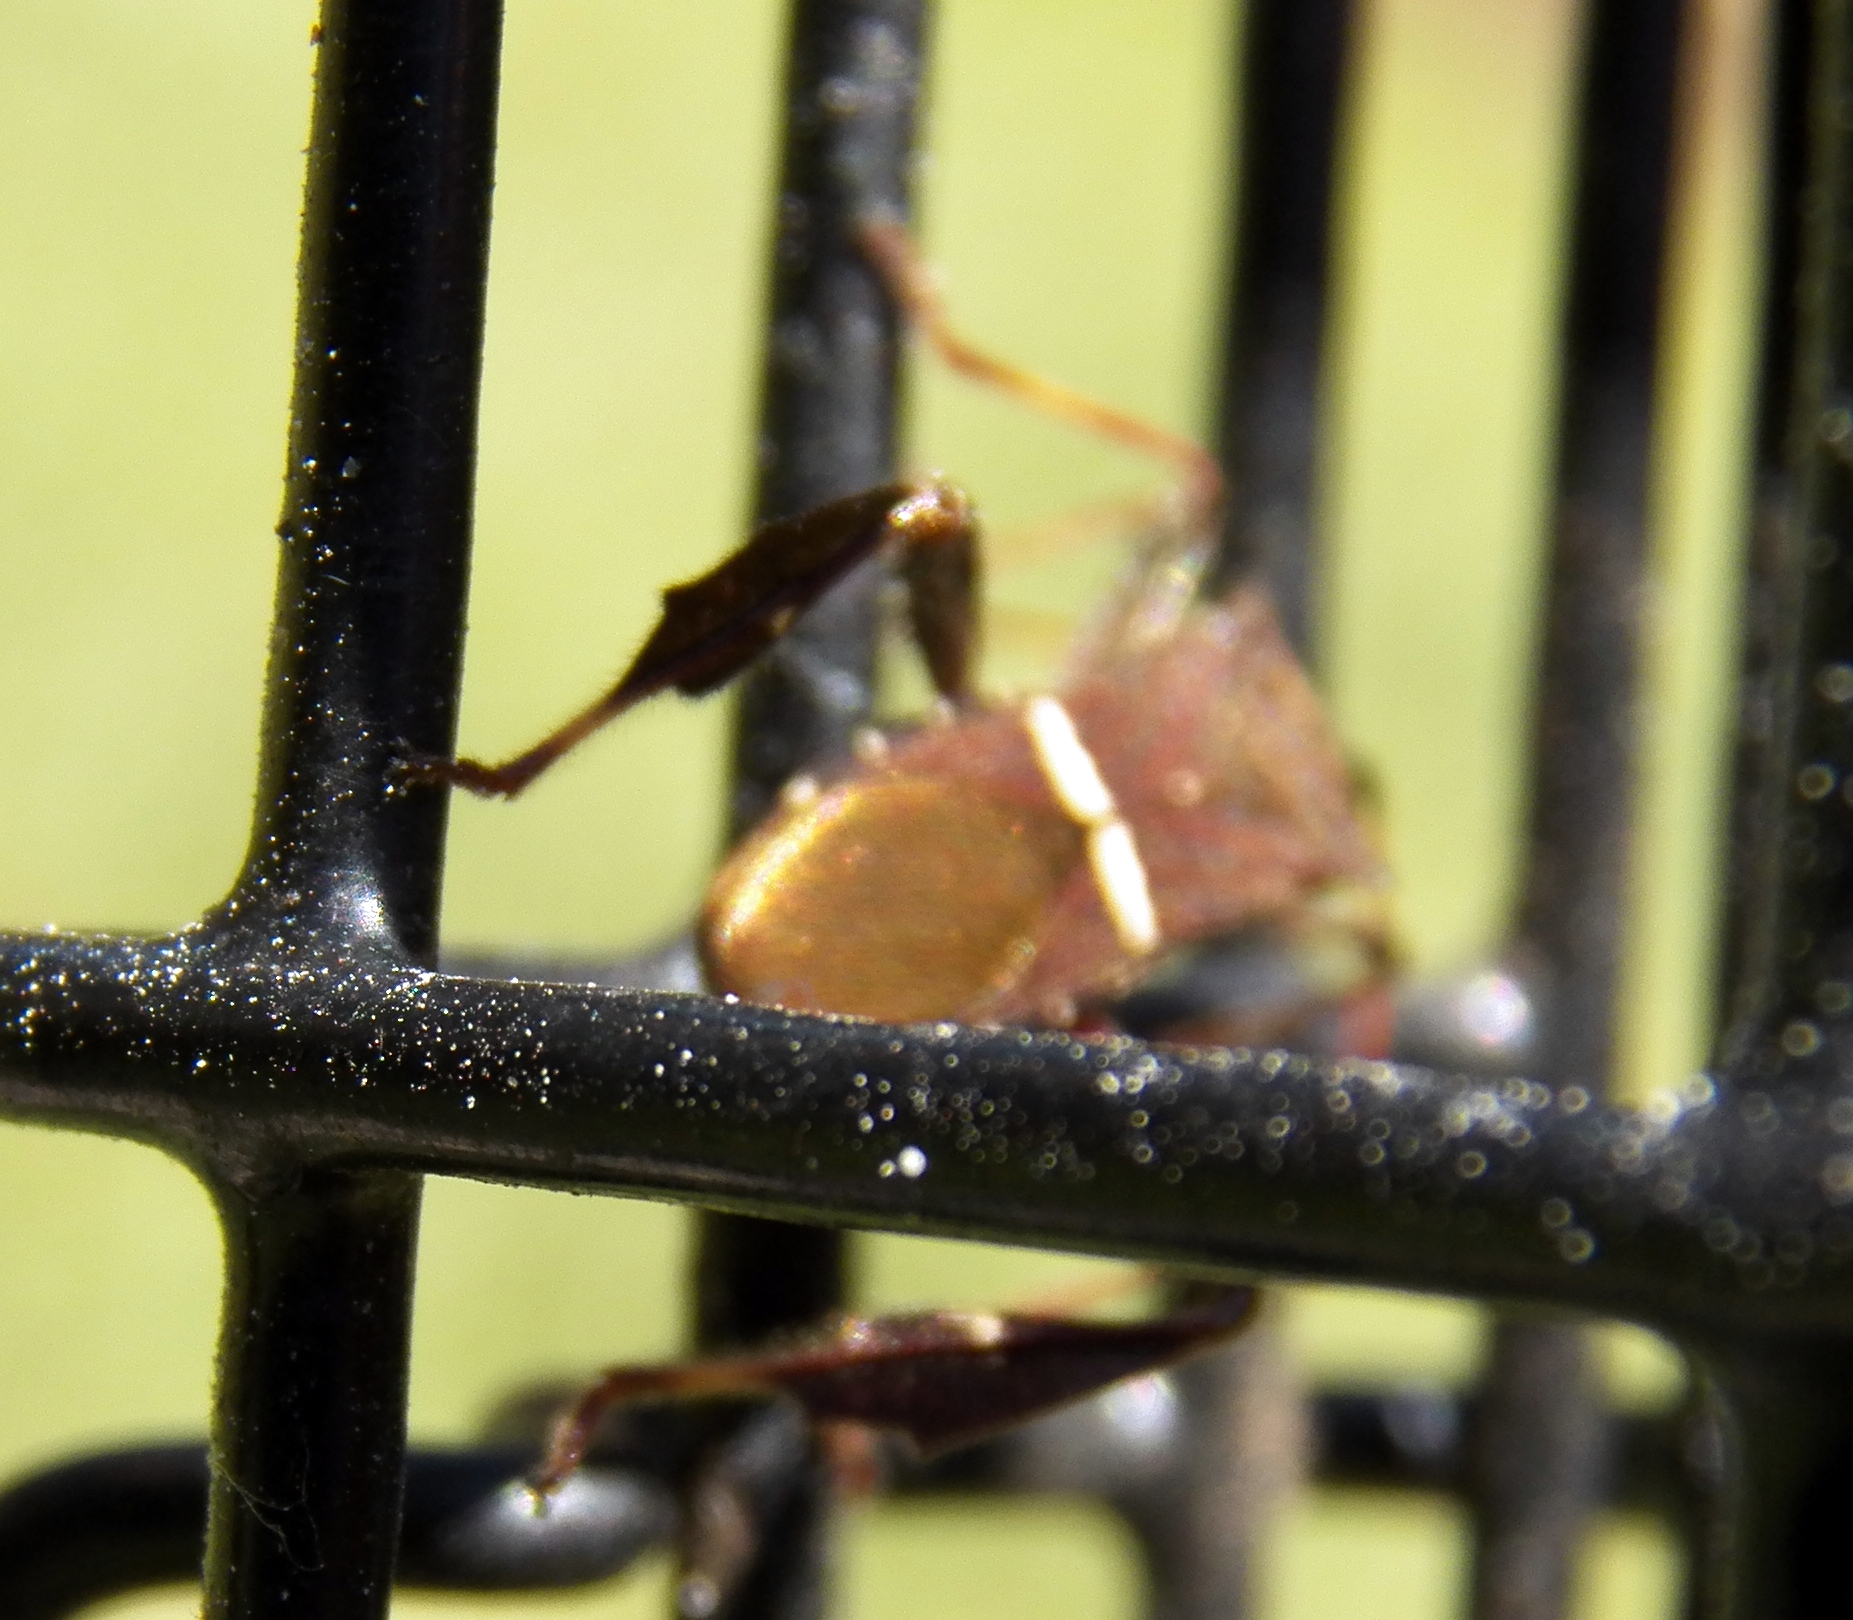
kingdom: Animalia
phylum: Arthropoda
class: Insecta
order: Hemiptera
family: Coreidae
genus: Leptoglossus
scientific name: Leptoglossus phyllopus
